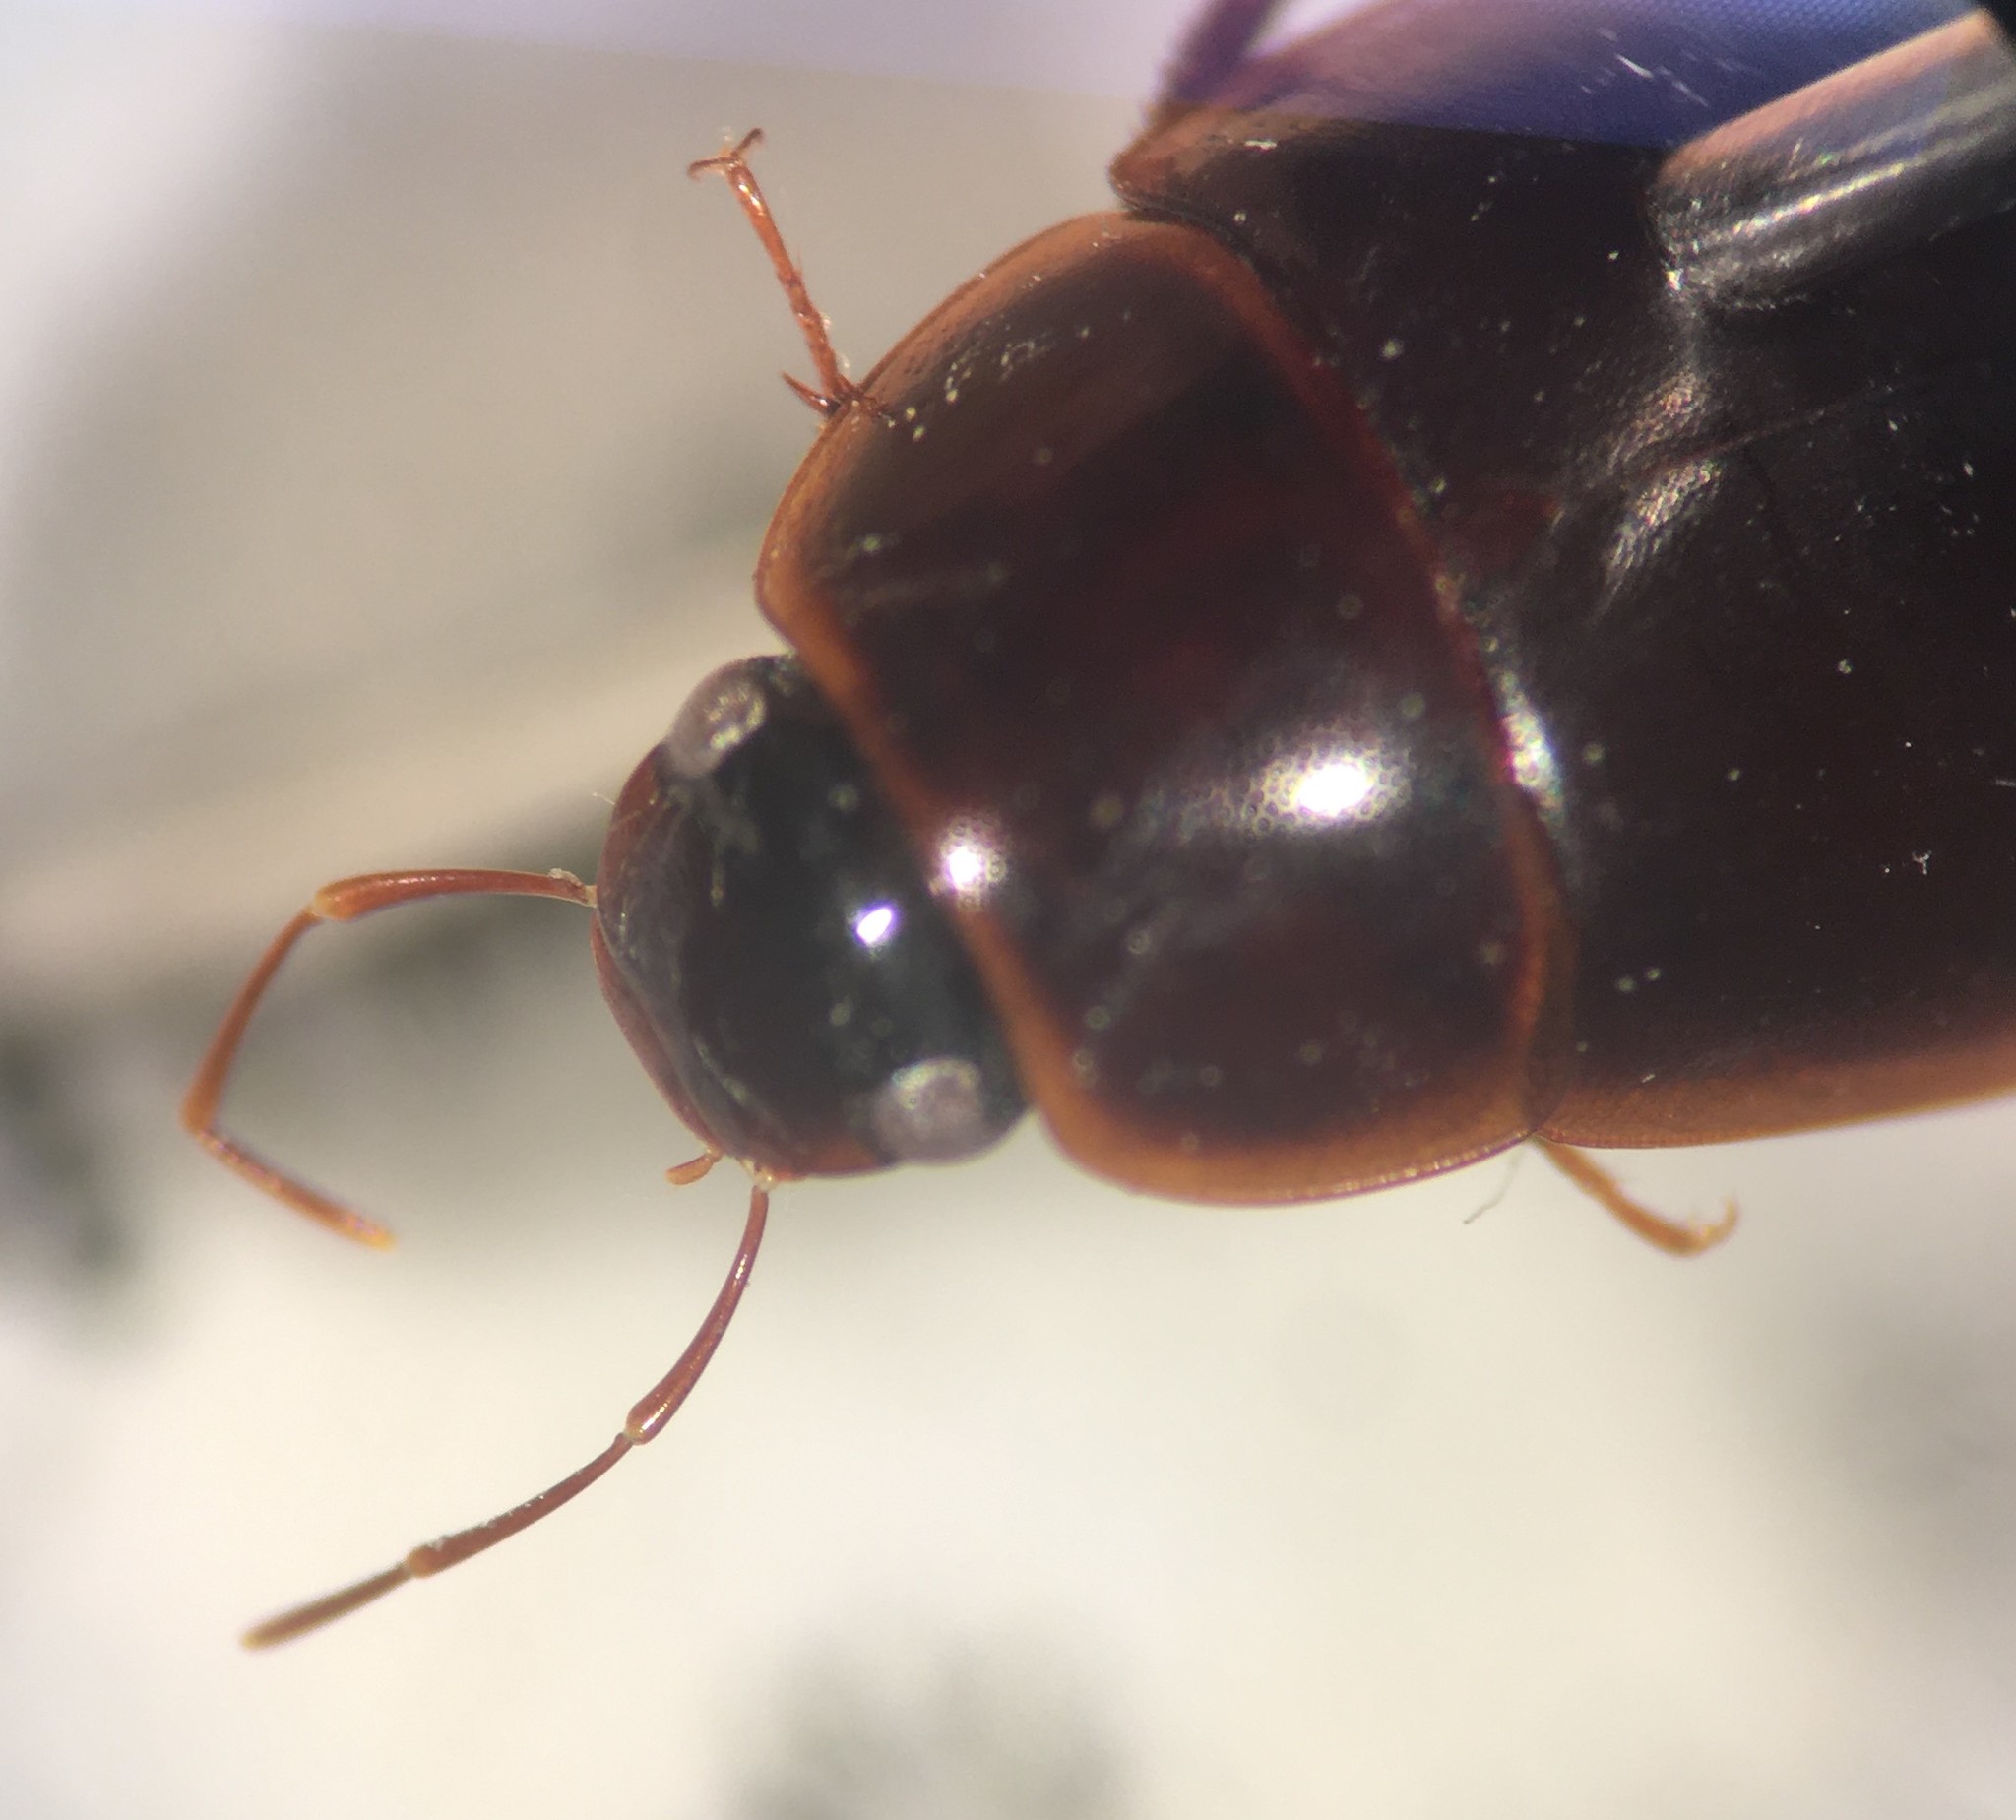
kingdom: Animalia
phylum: Arthropoda
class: Insecta
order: Coleoptera
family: Hydrophilidae
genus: Novochares
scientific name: Novochares sallaei
